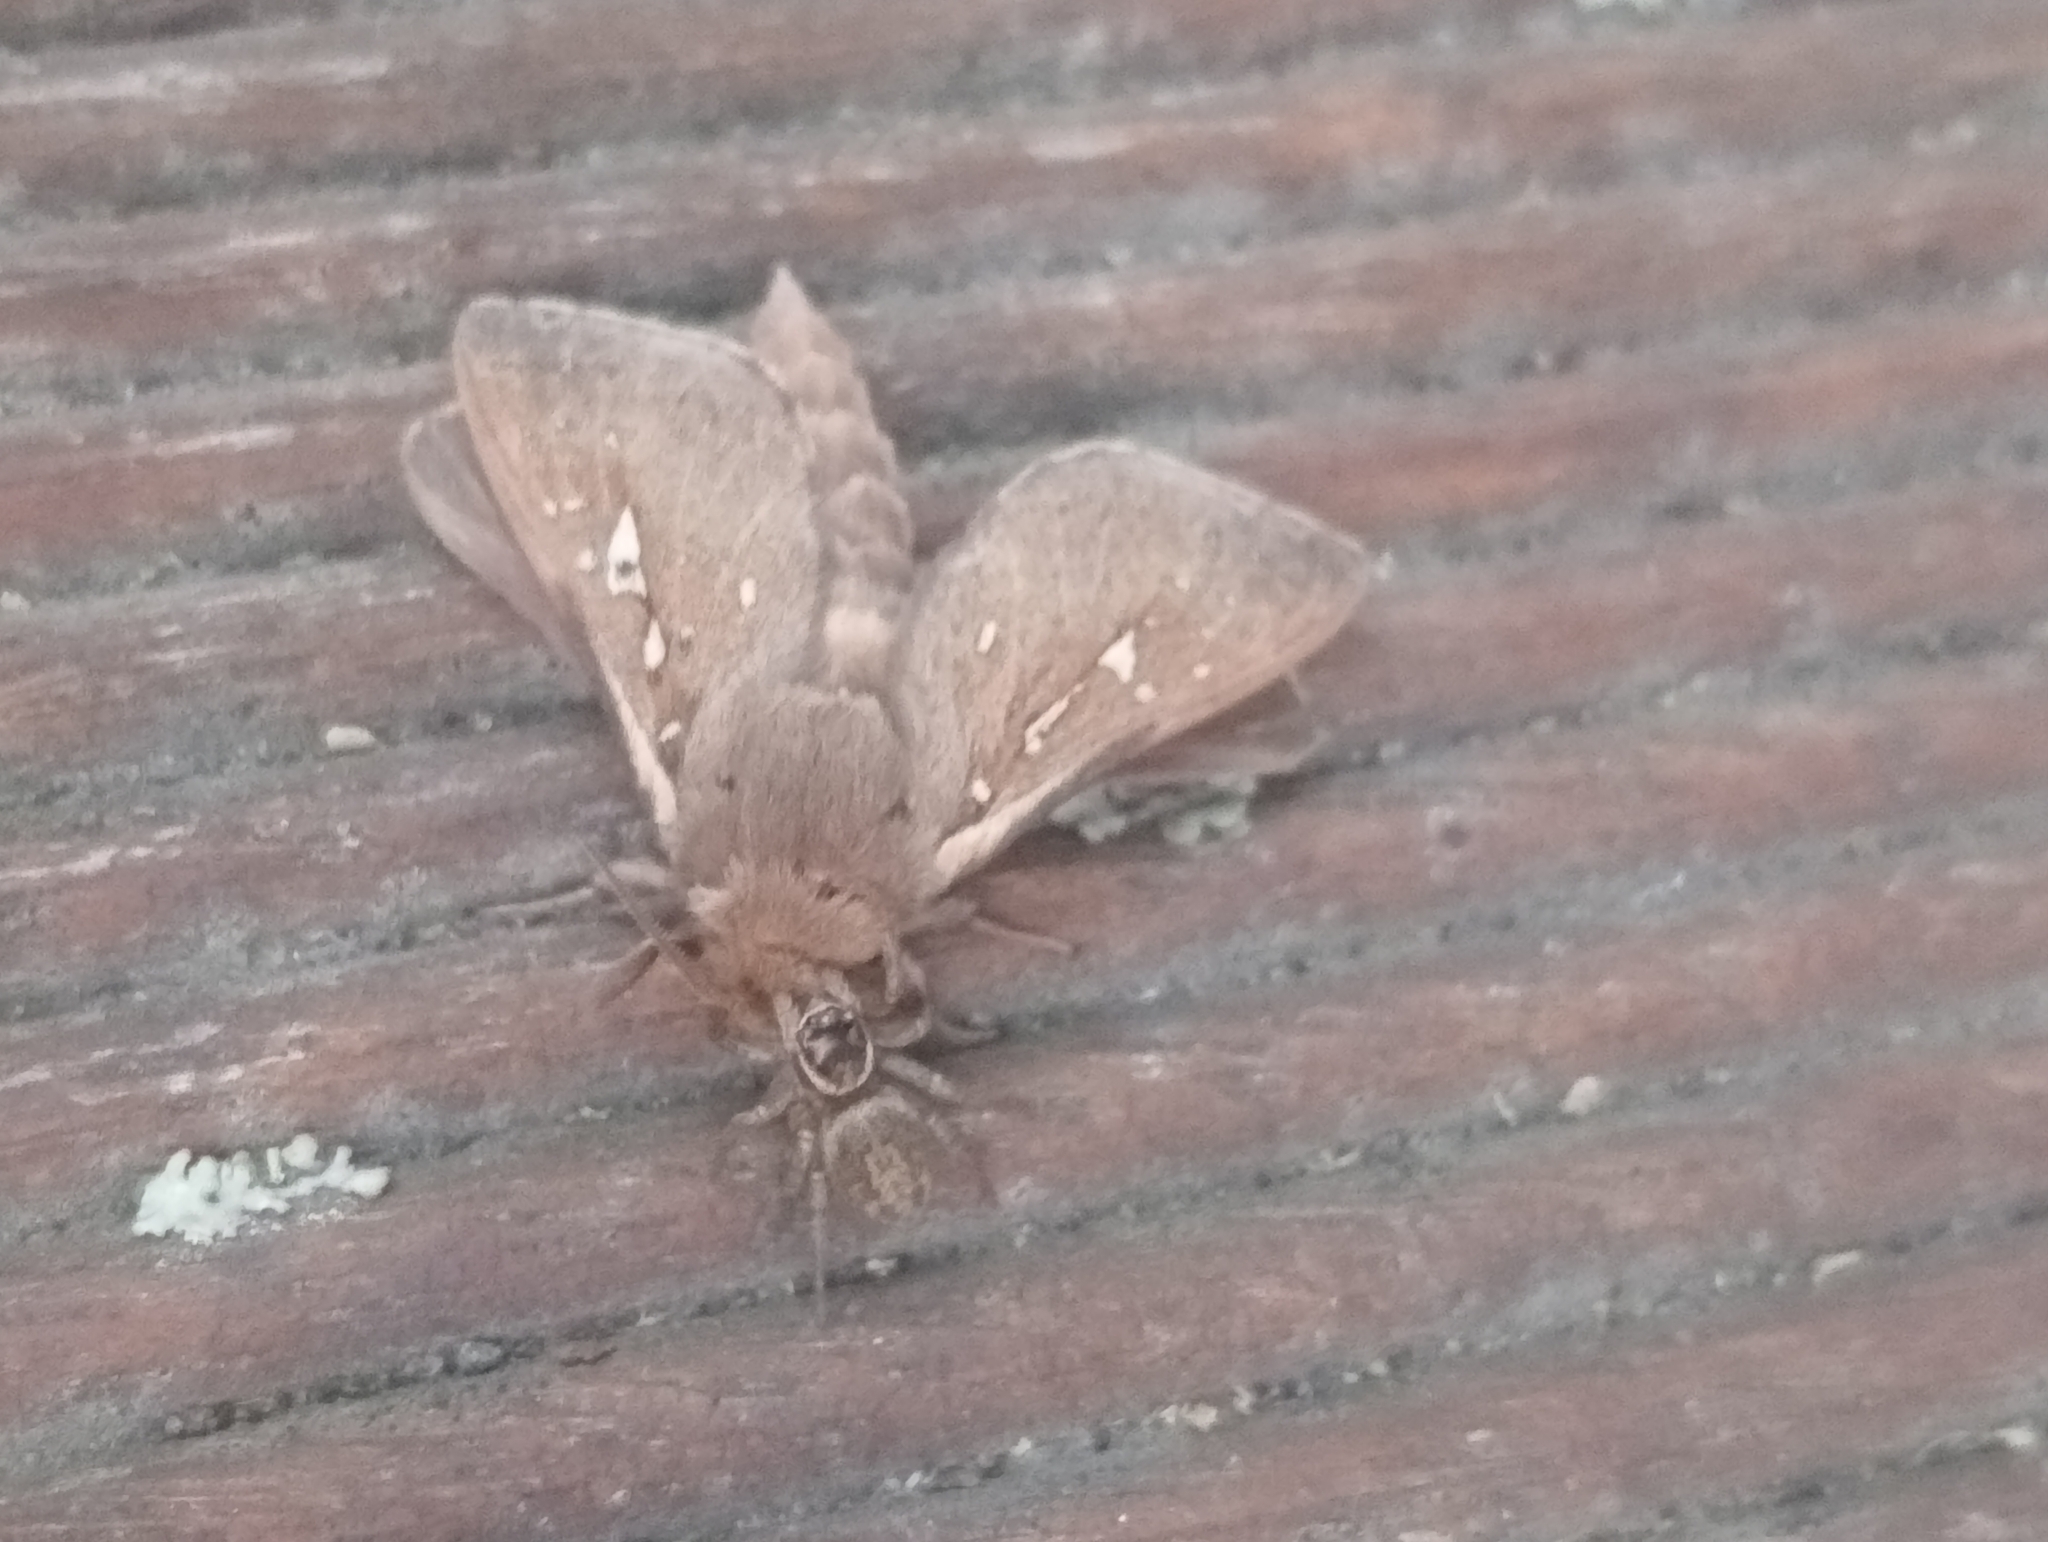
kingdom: Animalia
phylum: Arthropoda
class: Arachnida
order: Araneae
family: Salticidae
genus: Maratus
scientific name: Maratus griseus
